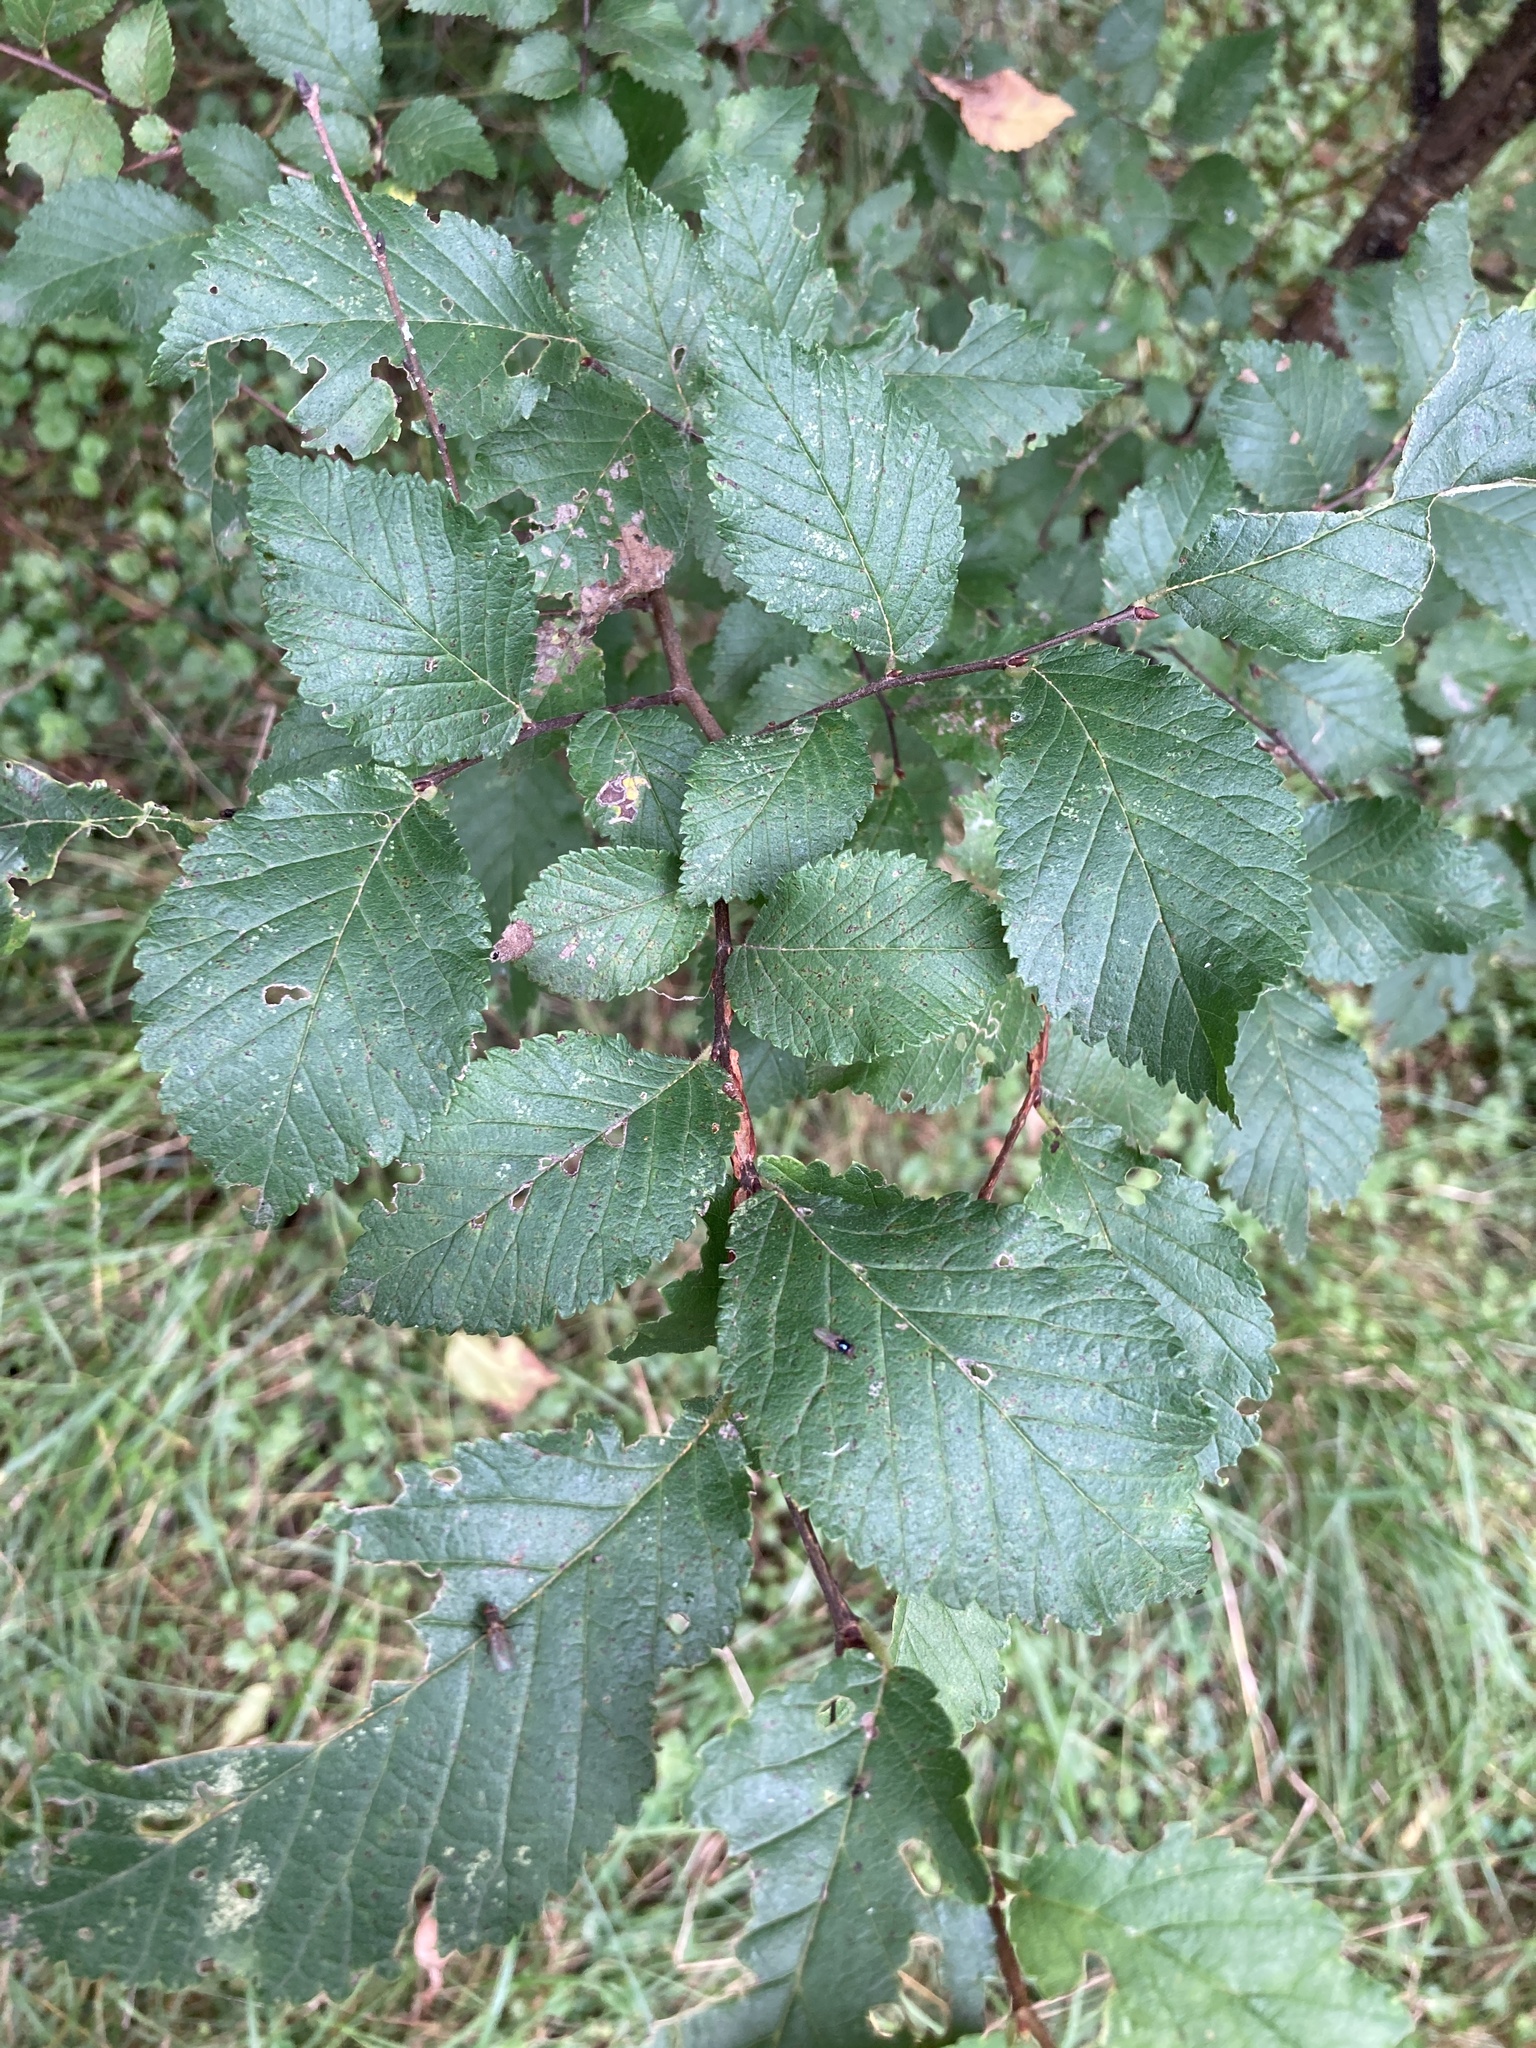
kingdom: Plantae
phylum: Tracheophyta
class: Magnoliopsida
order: Rosales
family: Ulmaceae
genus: Ulmus
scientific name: Ulmus minor
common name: Small-leaved elm
